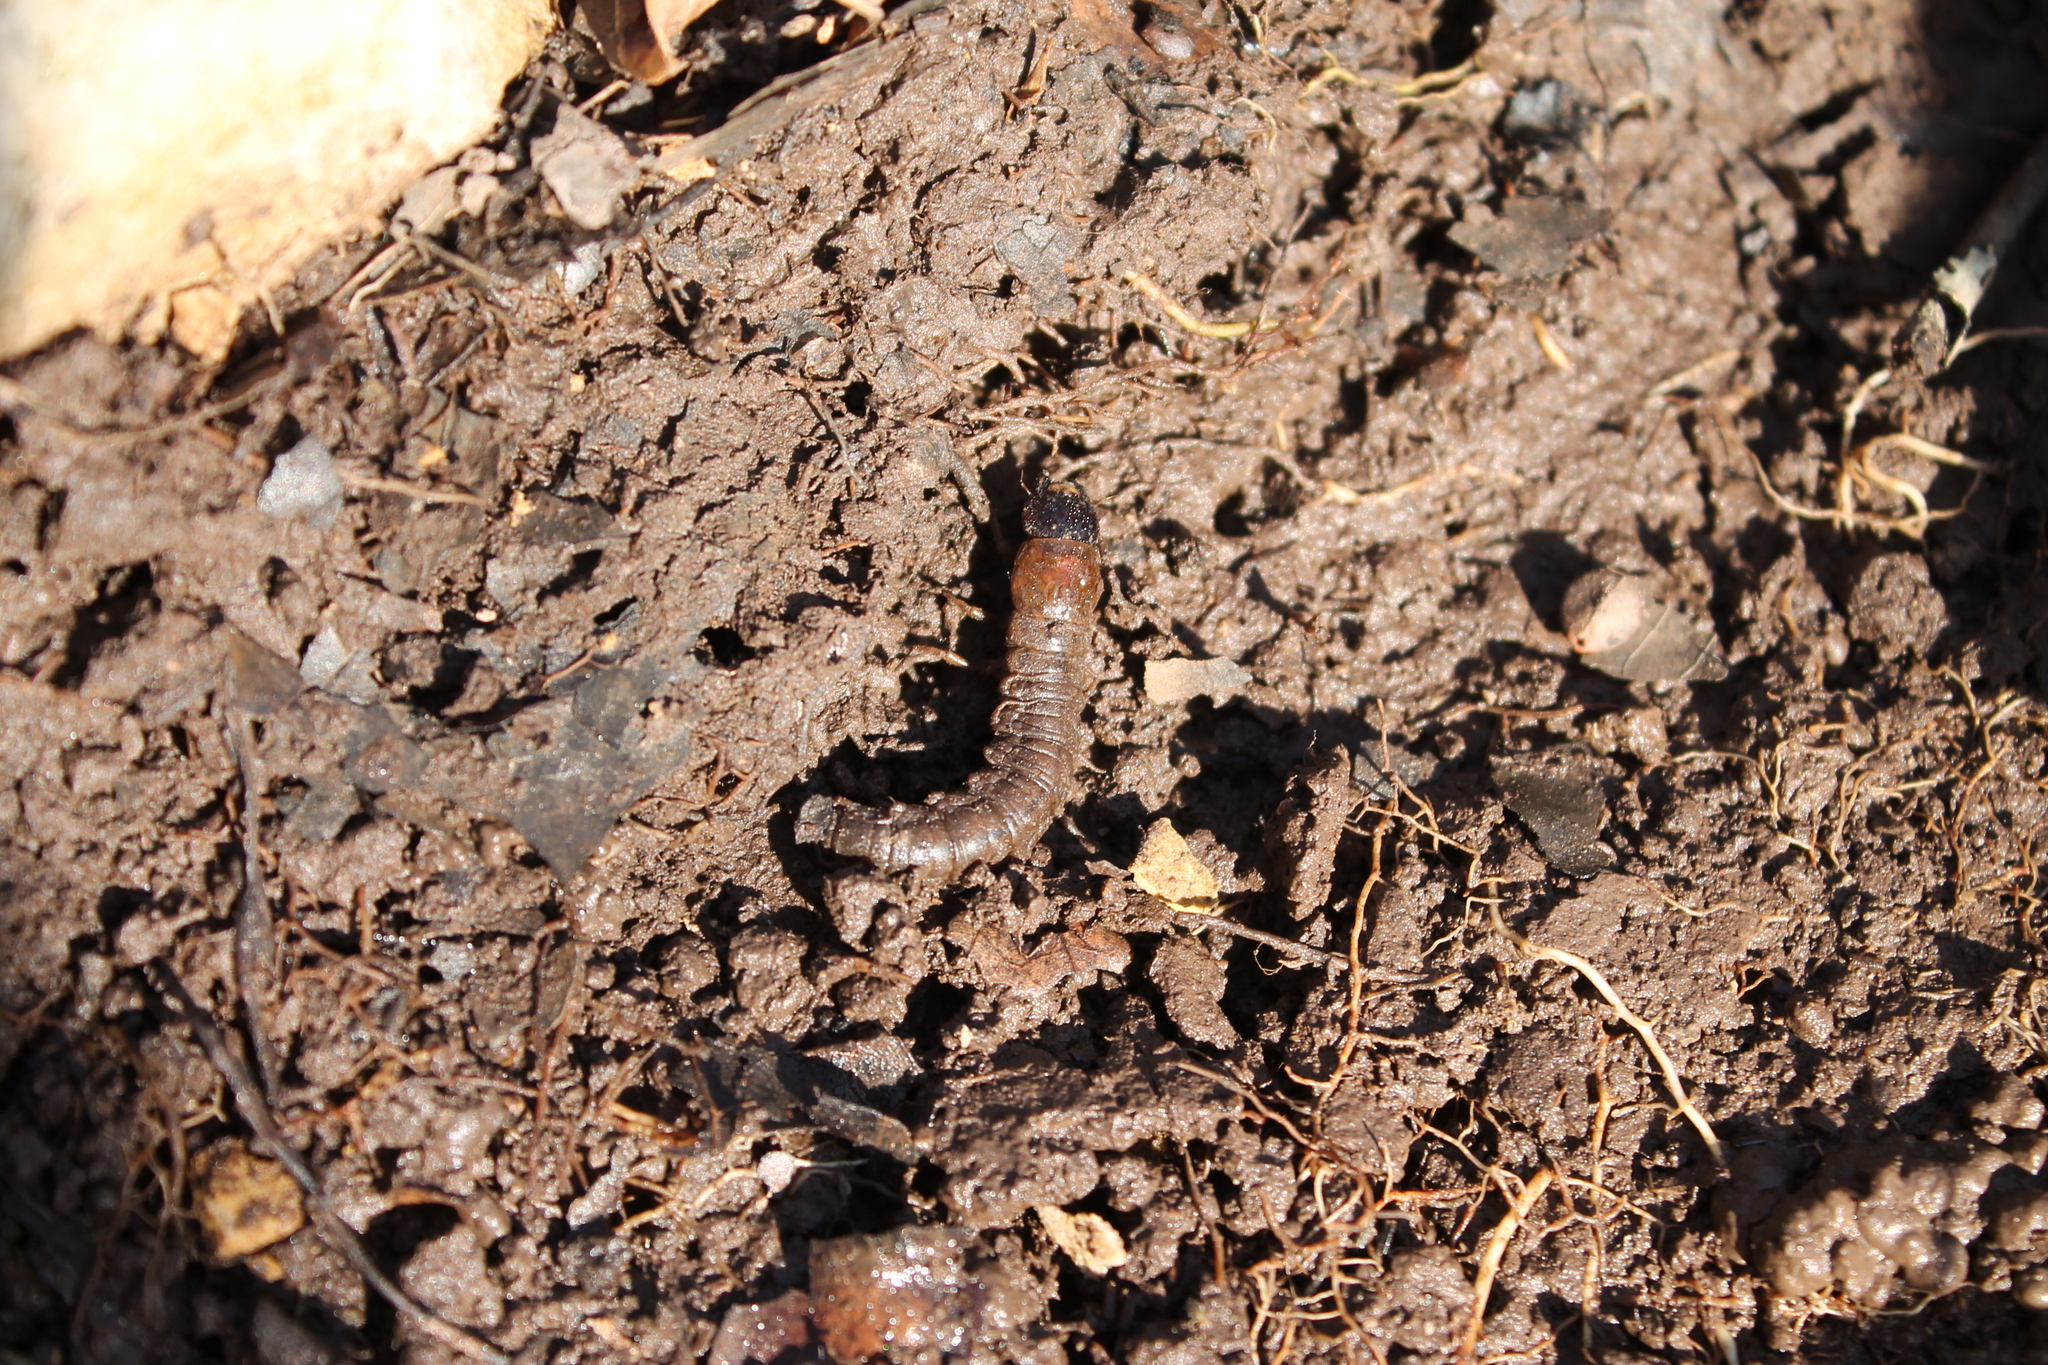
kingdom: Animalia
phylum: Arthropoda
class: Insecta
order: Megaloptera
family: Corydalidae
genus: Chauliodes
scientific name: Chauliodes rastricornis
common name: Spring fishfly
